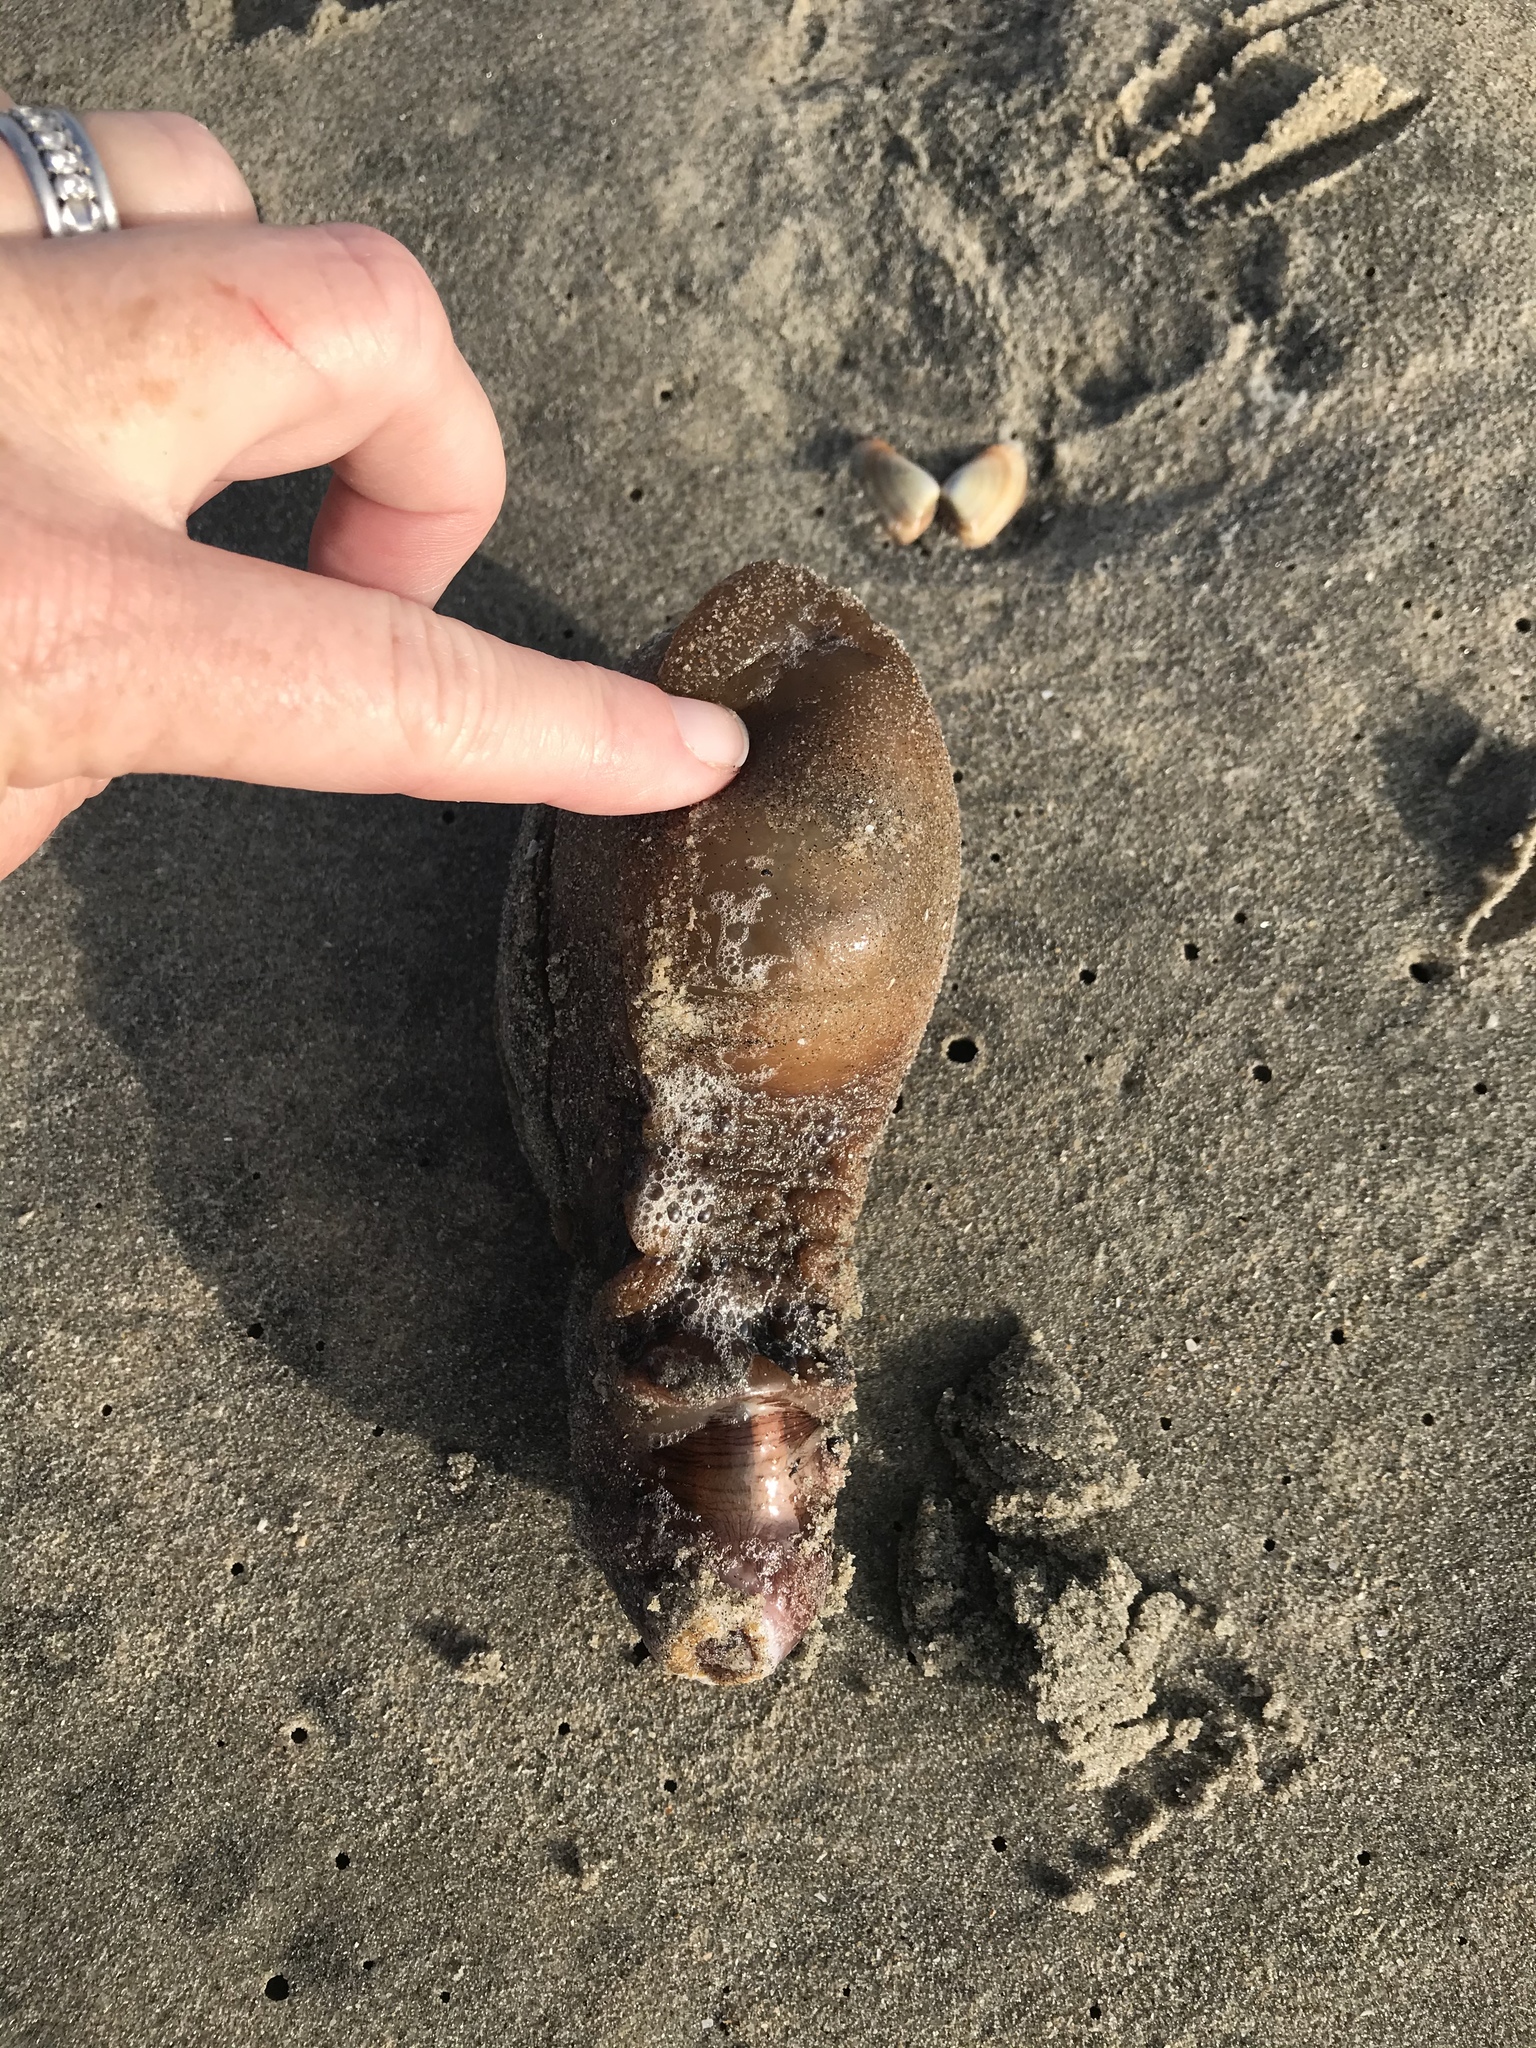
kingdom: Animalia
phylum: Mollusca
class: Gastropoda
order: Aplysiida
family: Aplysiidae
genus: Aplysia
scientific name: Aplysia californica
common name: California seahare
